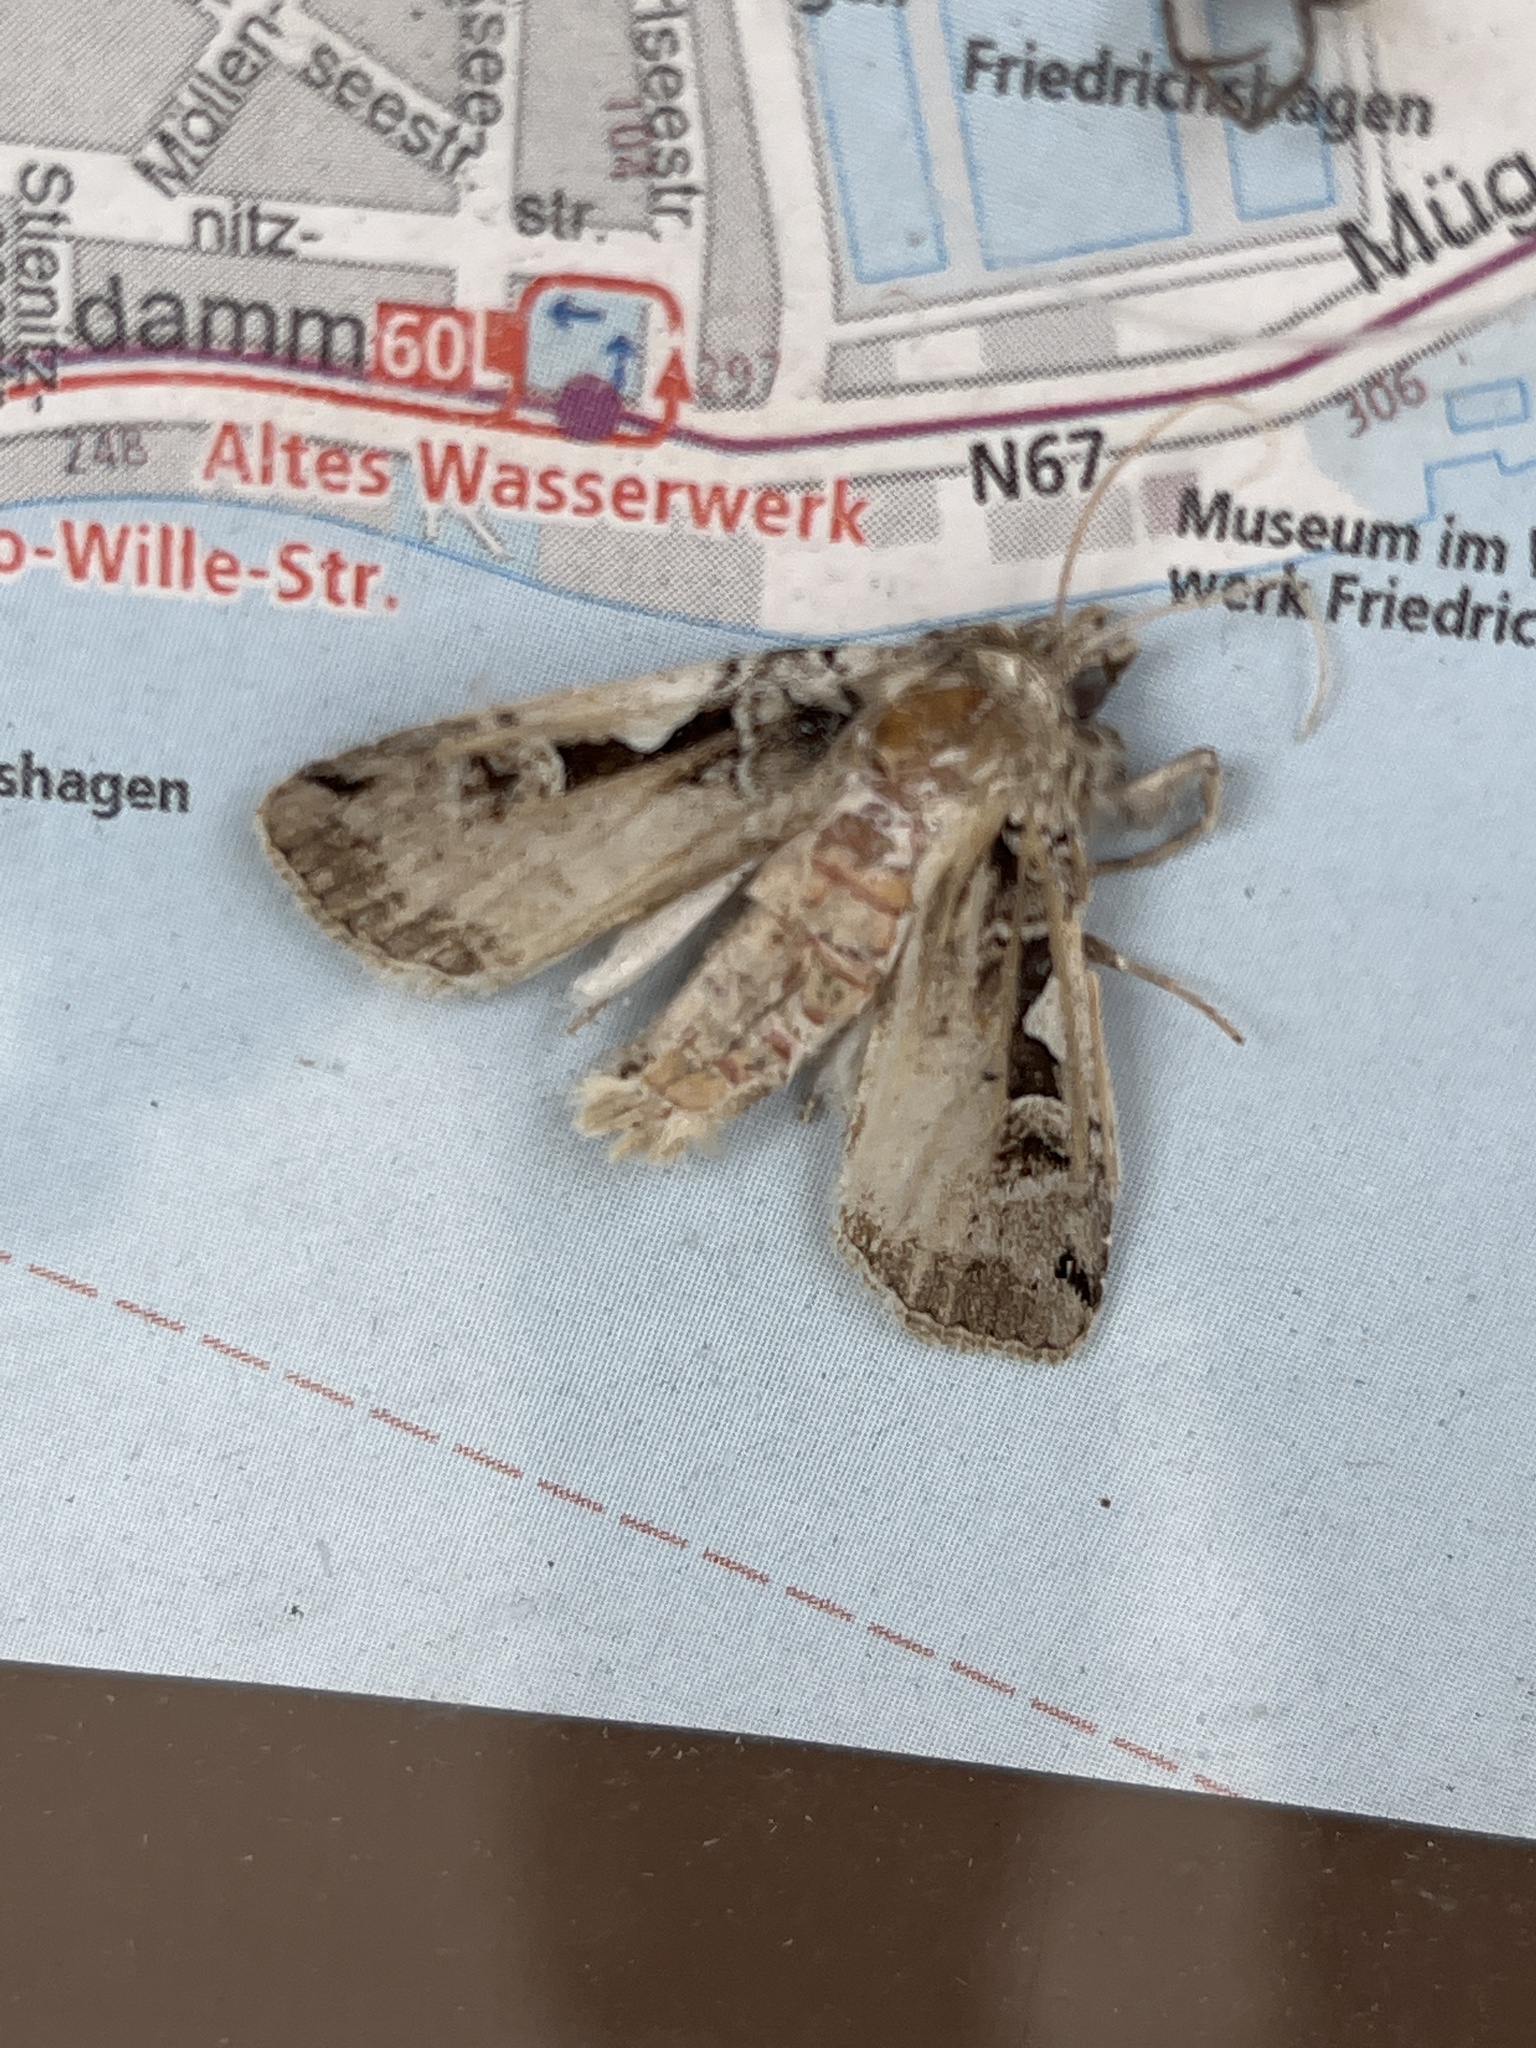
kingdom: Animalia
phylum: Arthropoda
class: Insecta
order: Lepidoptera
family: Noctuidae
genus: Xestia
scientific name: Xestia c-nigrum
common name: Setaceous hebrew character
